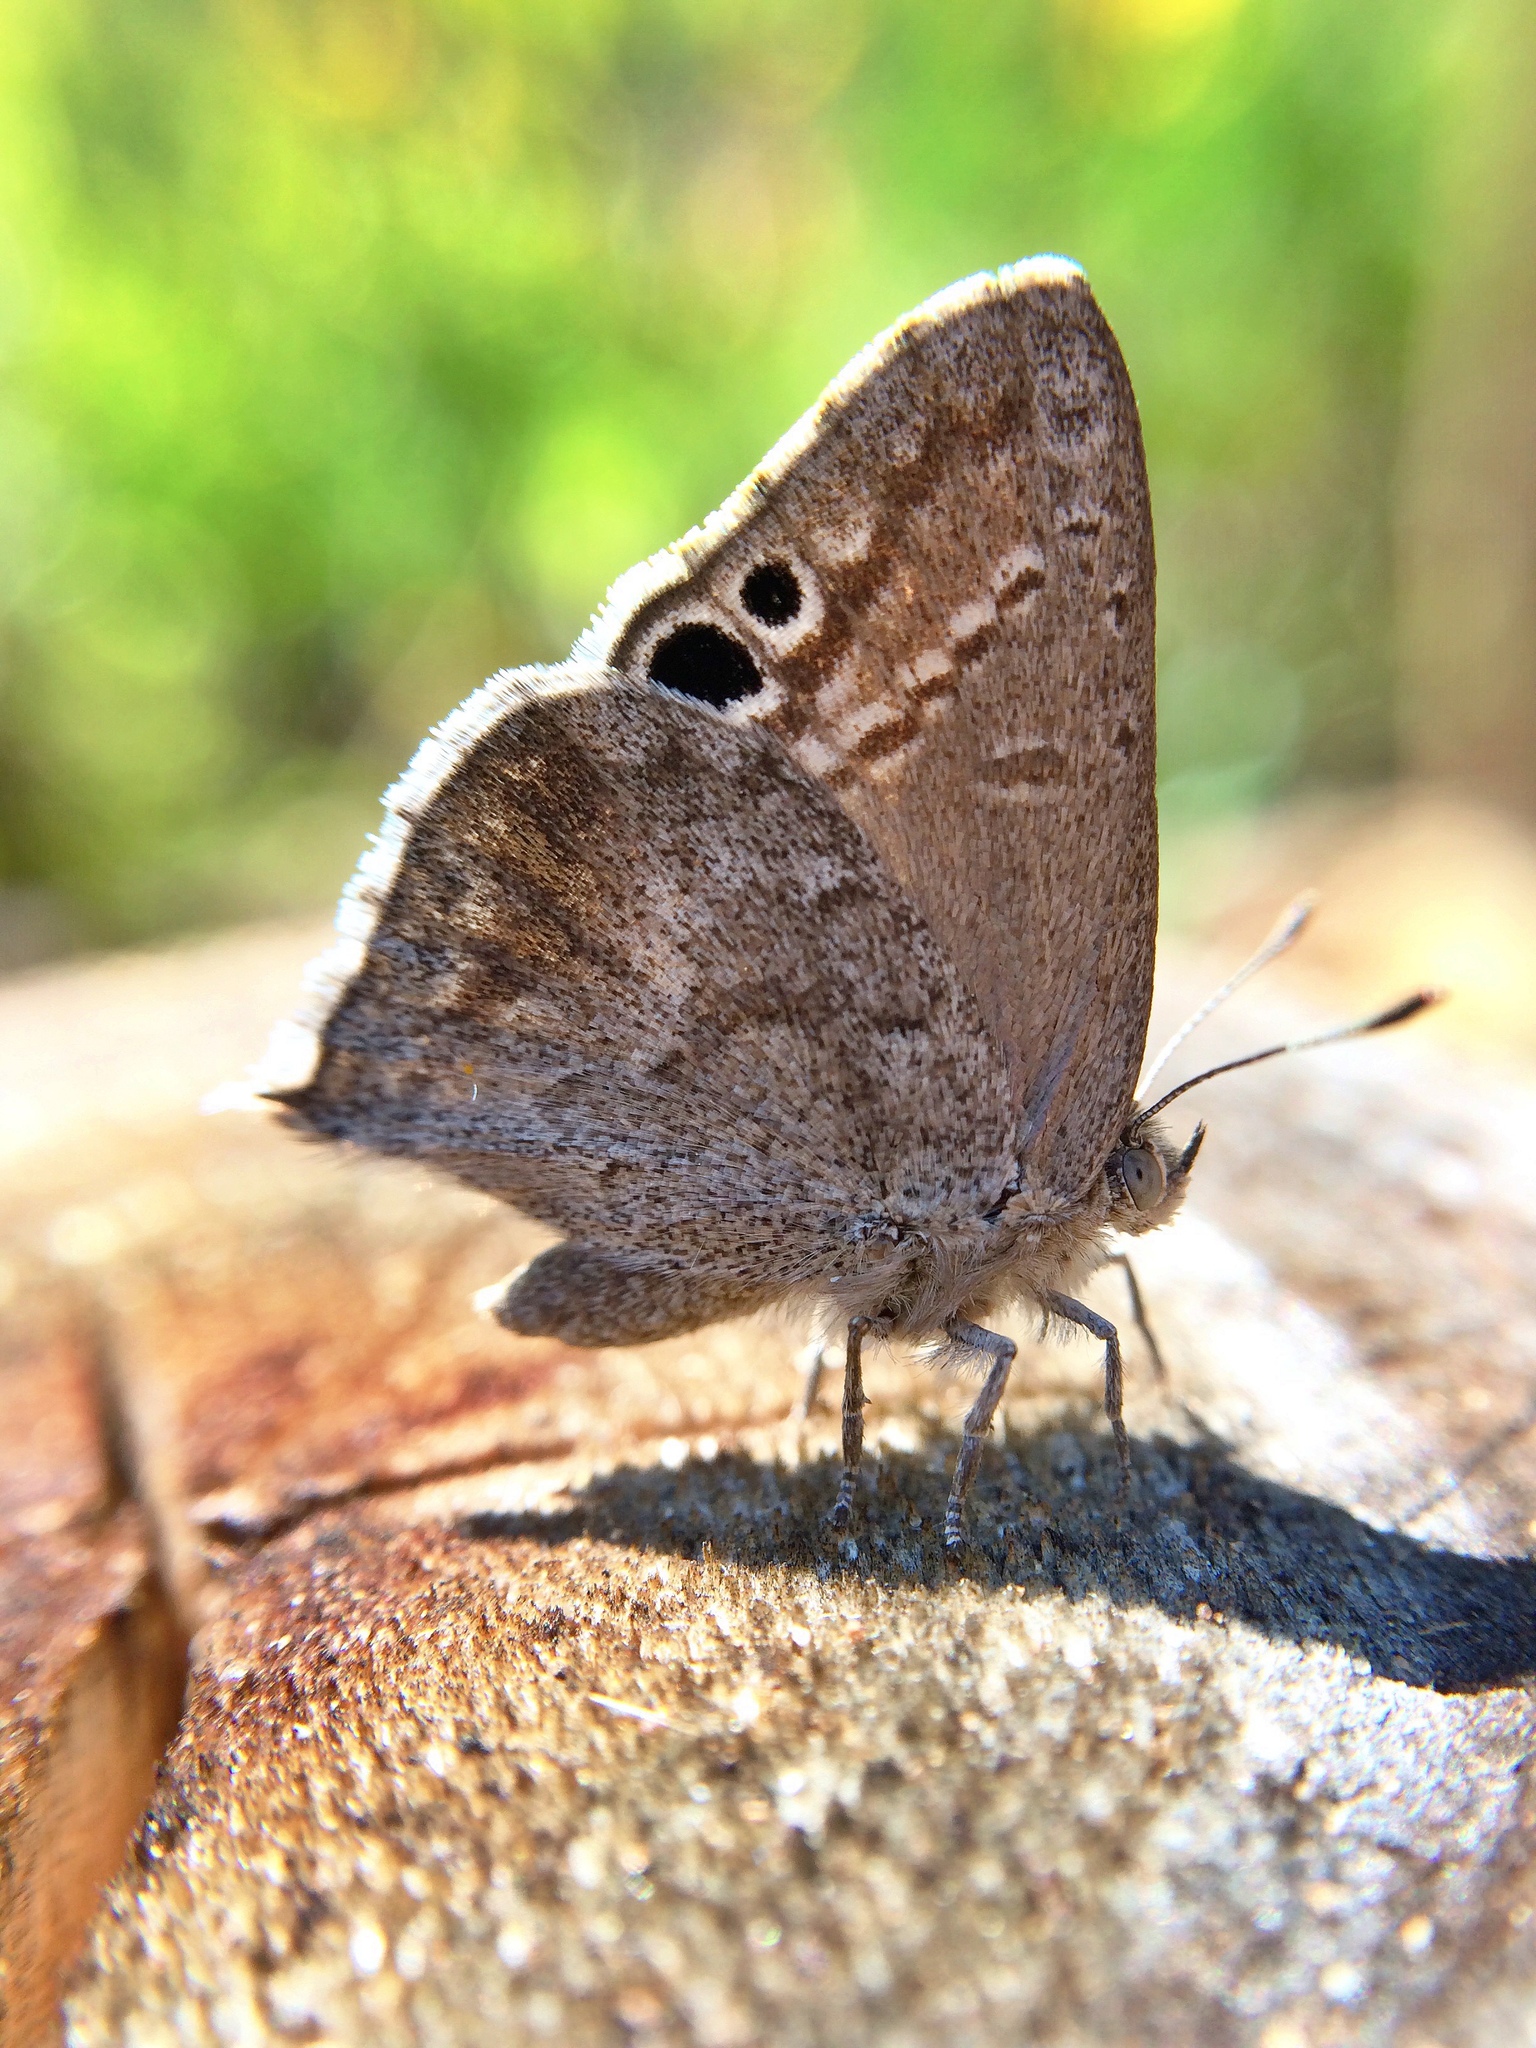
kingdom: Animalia
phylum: Arthropoda
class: Insecta
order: Lepidoptera
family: Lycaenidae
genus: Leptomyrina
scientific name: Leptomyrina gorgias
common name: Common black-eye
